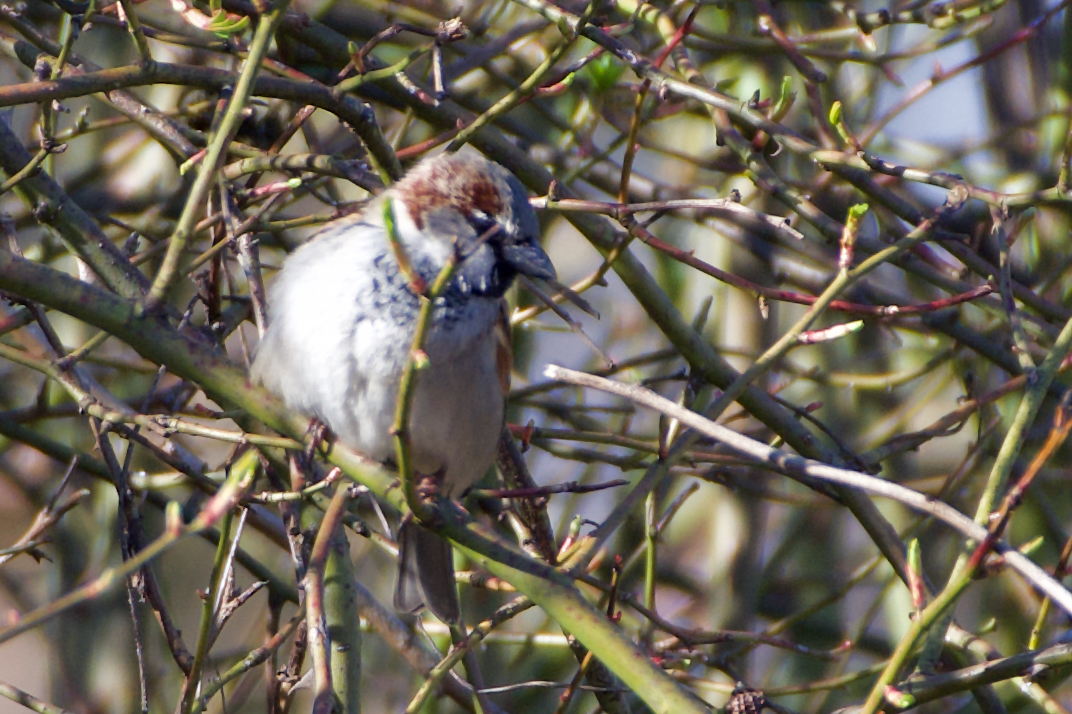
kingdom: Animalia
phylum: Chordata
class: Aves
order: Passeriformes
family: Passeridae
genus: Passer
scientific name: Passer domesticus
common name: House sparrow
